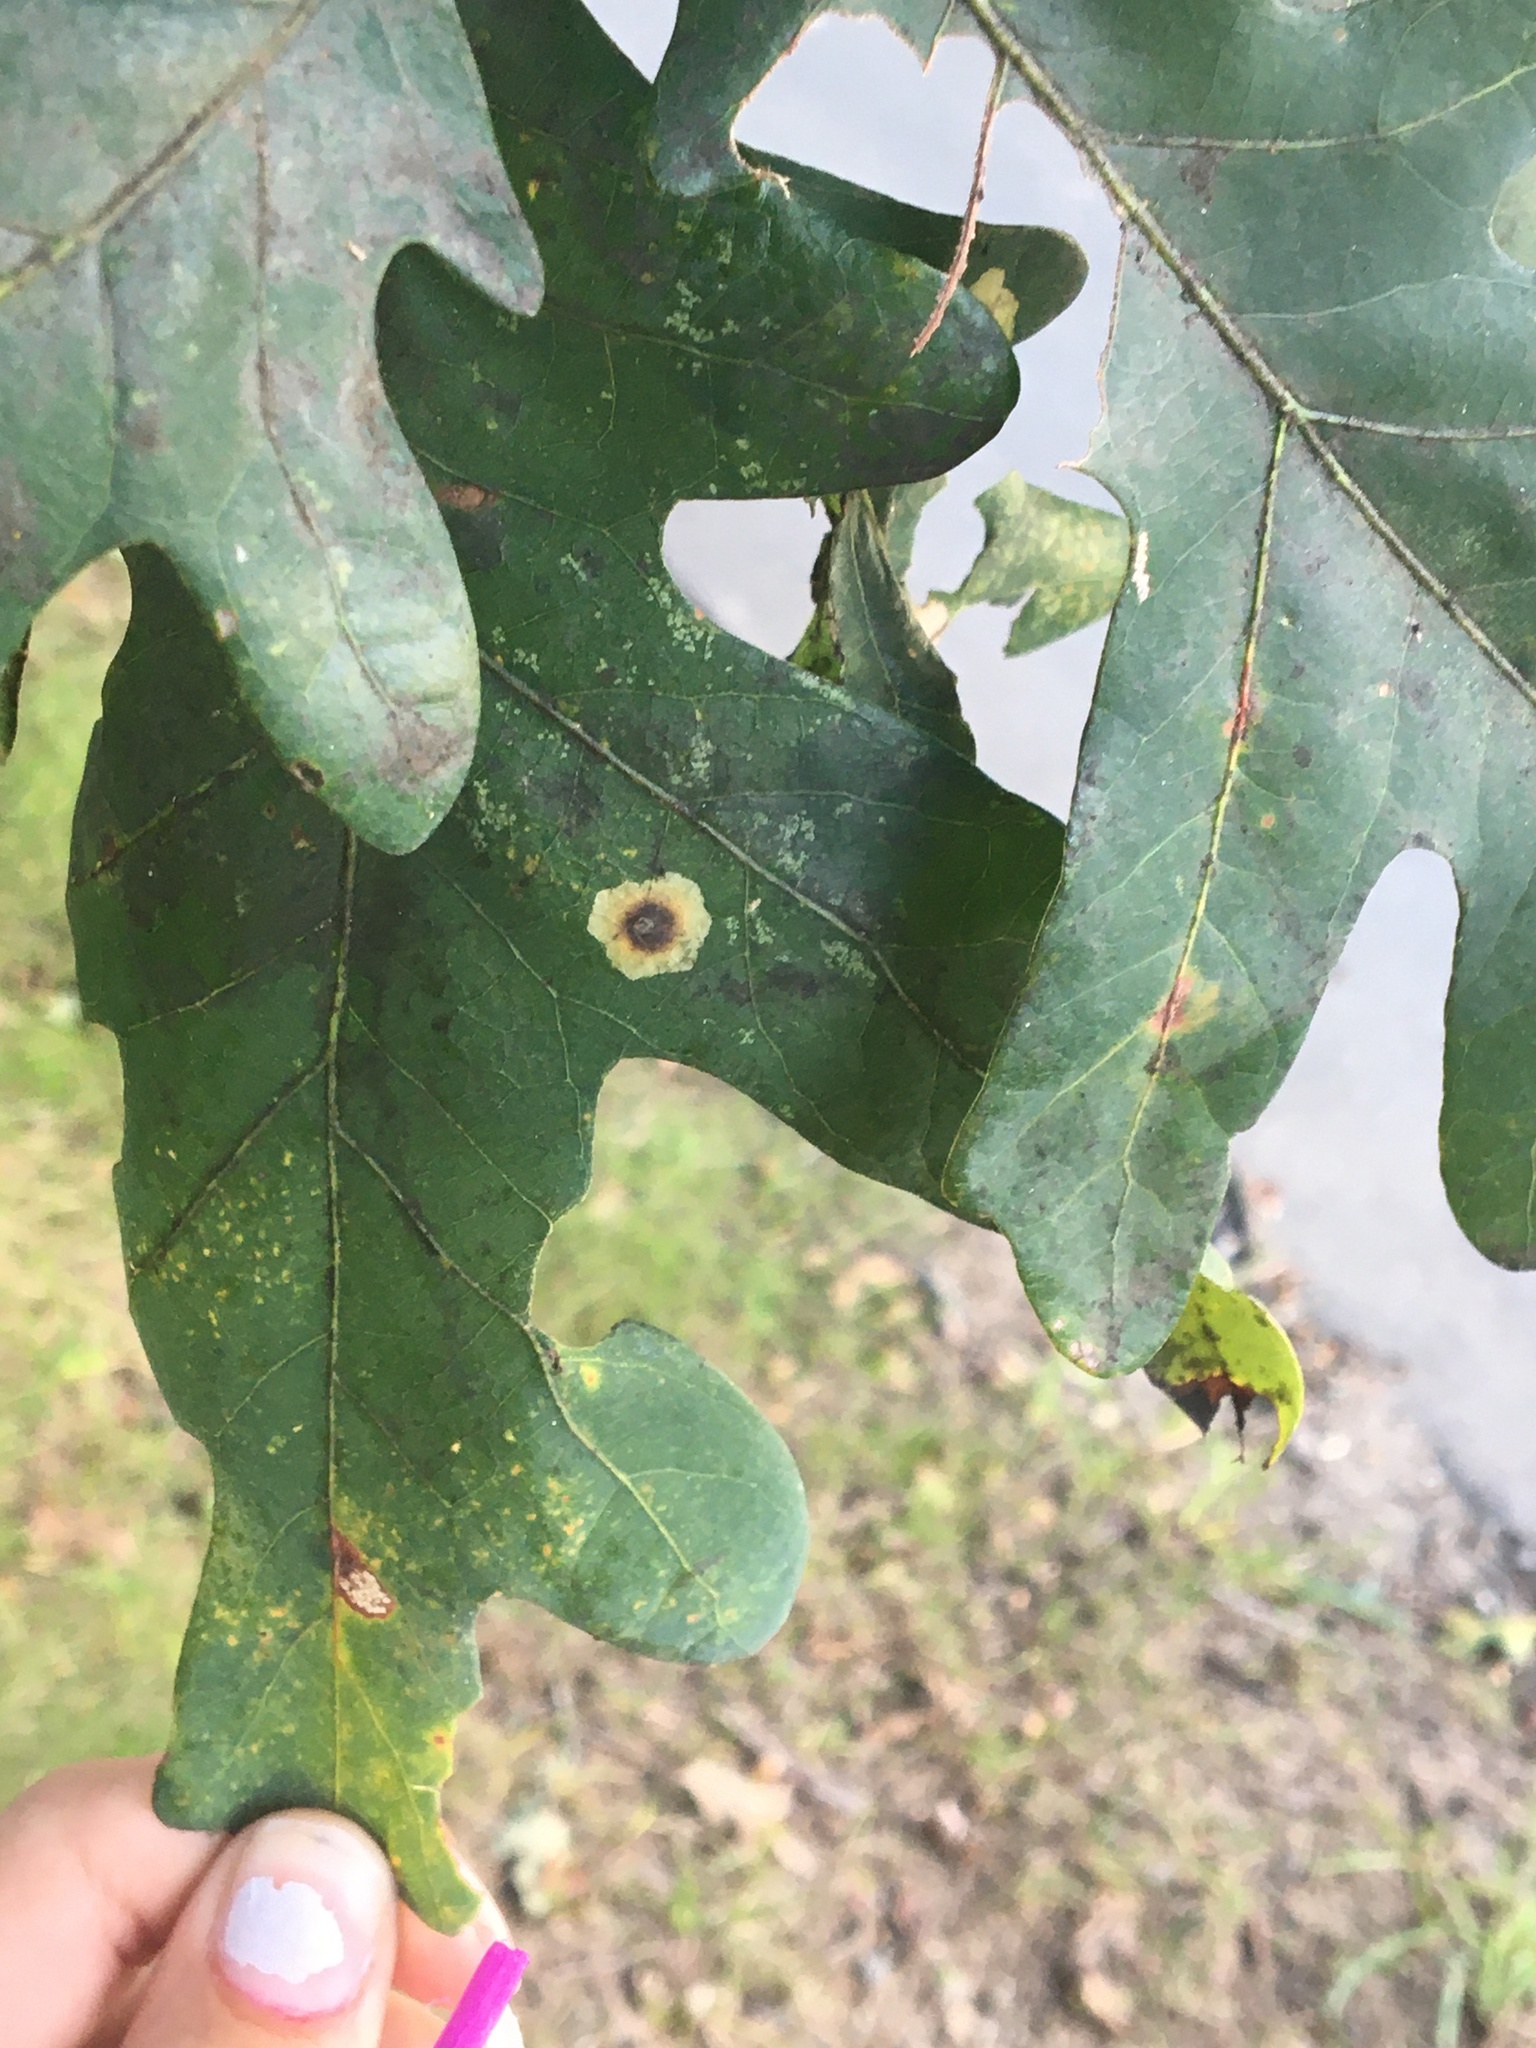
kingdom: Animalia
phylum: Arthropoda
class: Insecta
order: Lepidoptera
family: Gracillariidae
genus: Cameraria
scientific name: Cameraria
